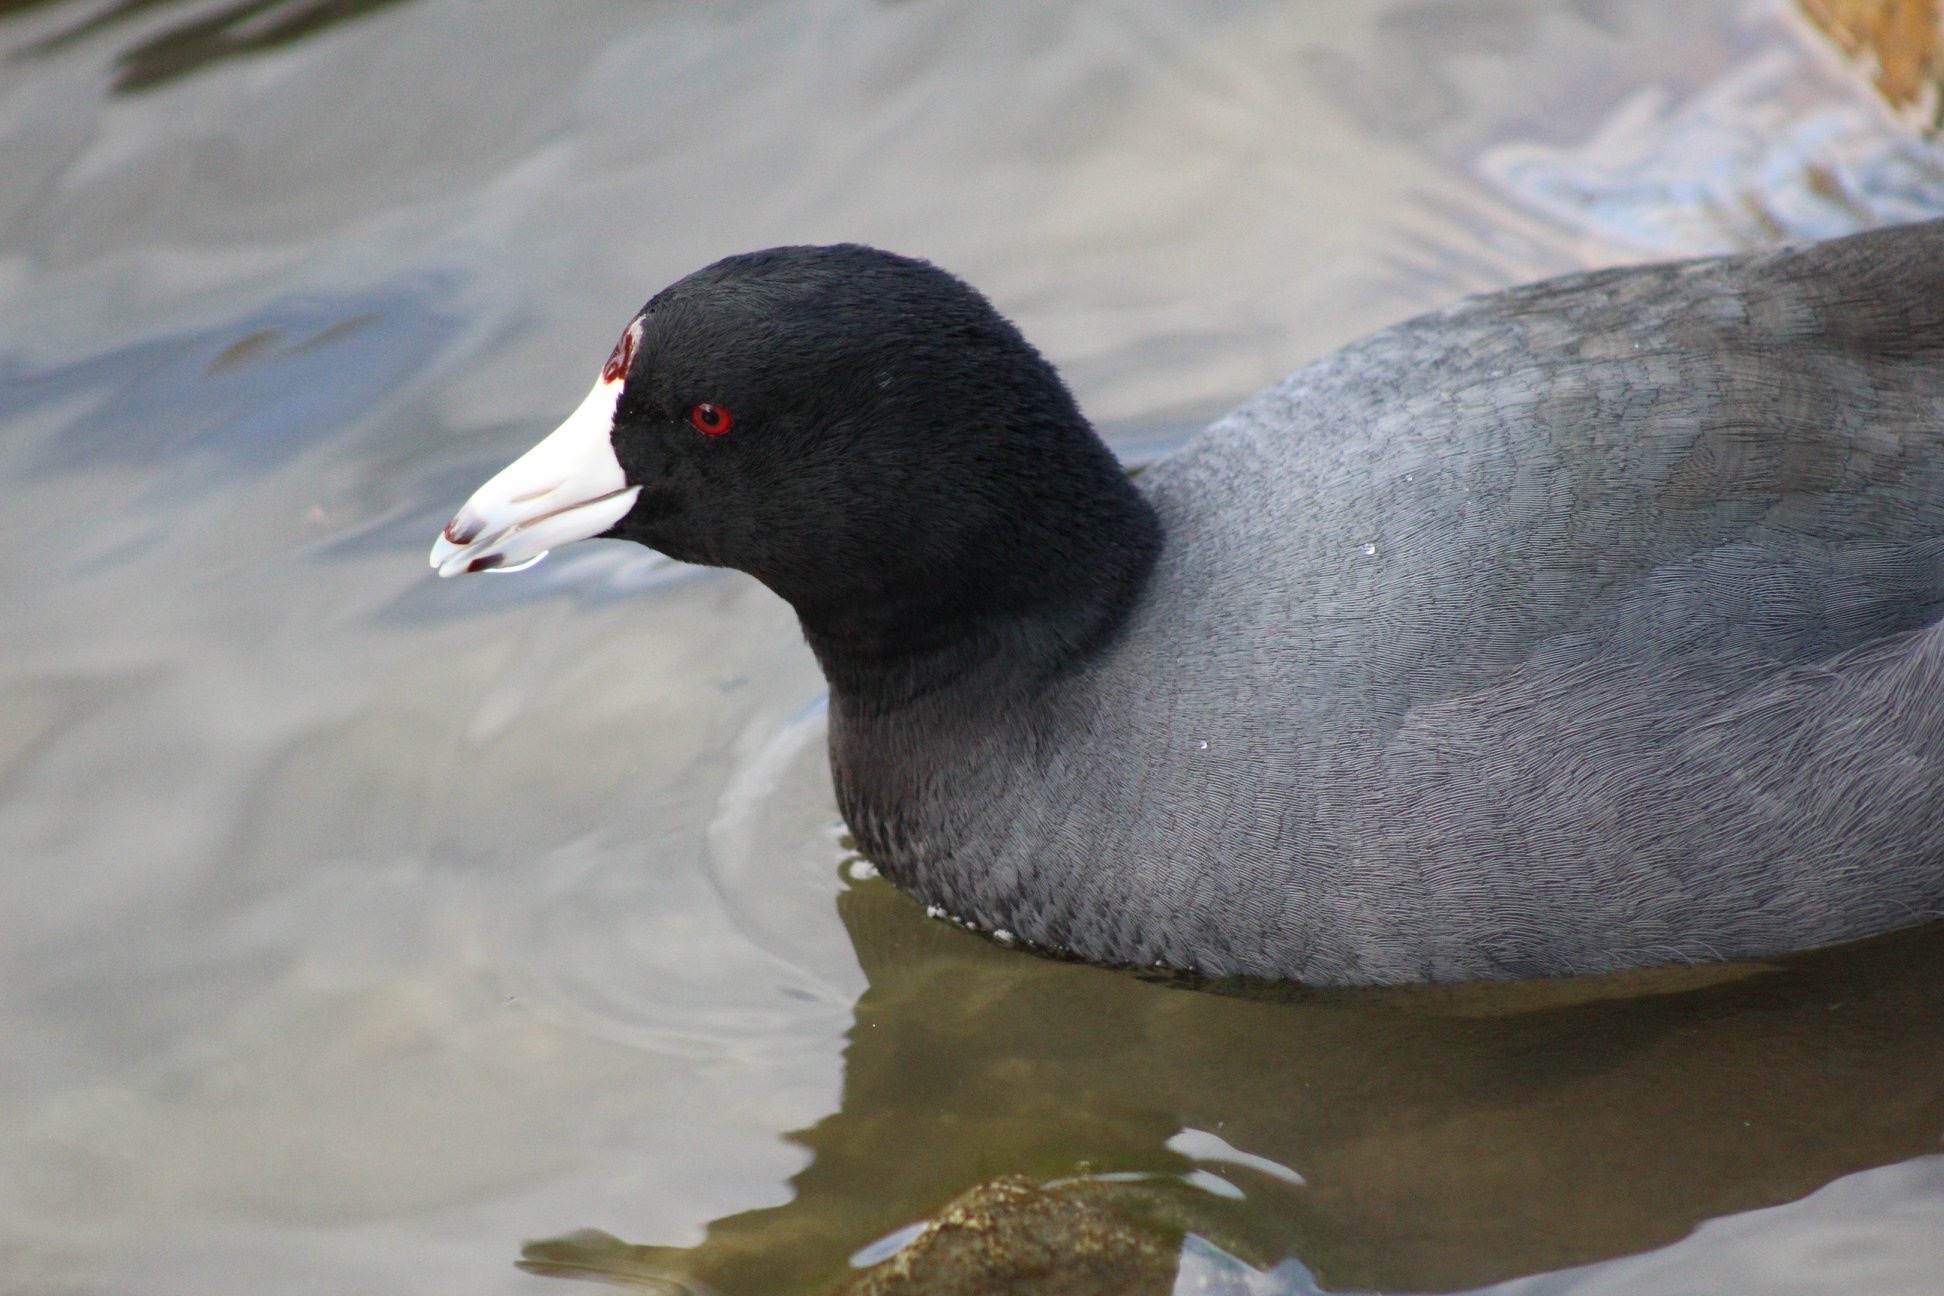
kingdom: Animalia
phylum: Chordata
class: Aves
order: Gruiformes
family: Rallidae
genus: Fulica
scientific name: Fulica americana
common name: American coot
